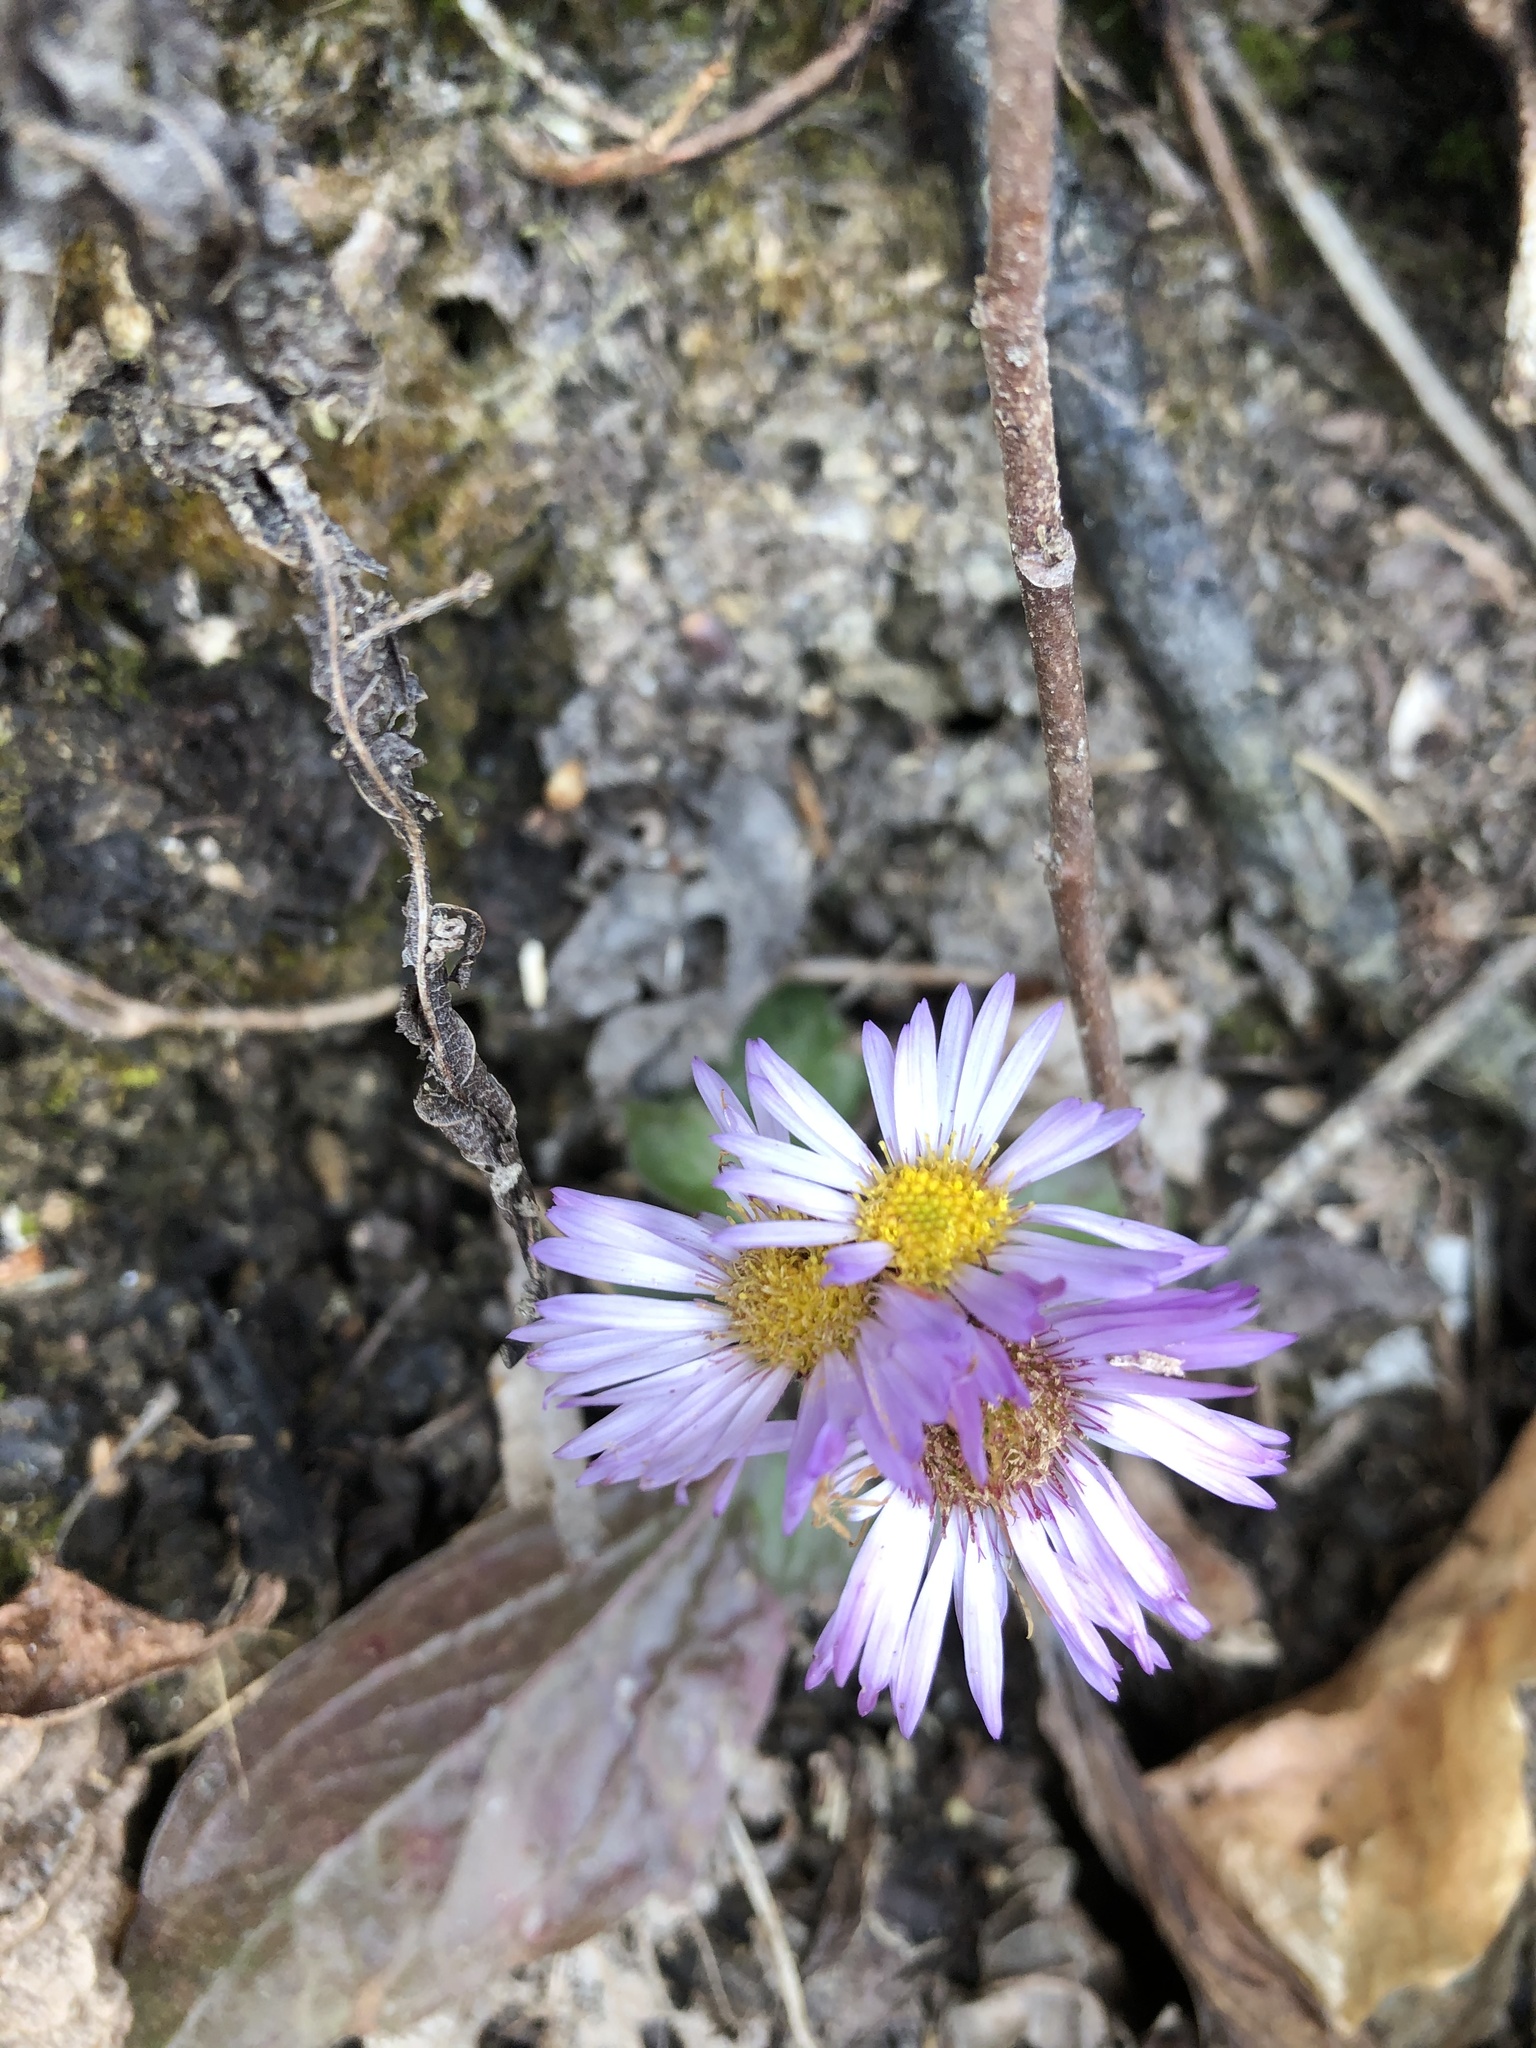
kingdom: Plantae
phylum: Tracheophyta
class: Magnoliopsida
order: Asterales
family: Asteraceae
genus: Erigeron
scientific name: Erigeron pulchellus
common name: Hairy fleabane
